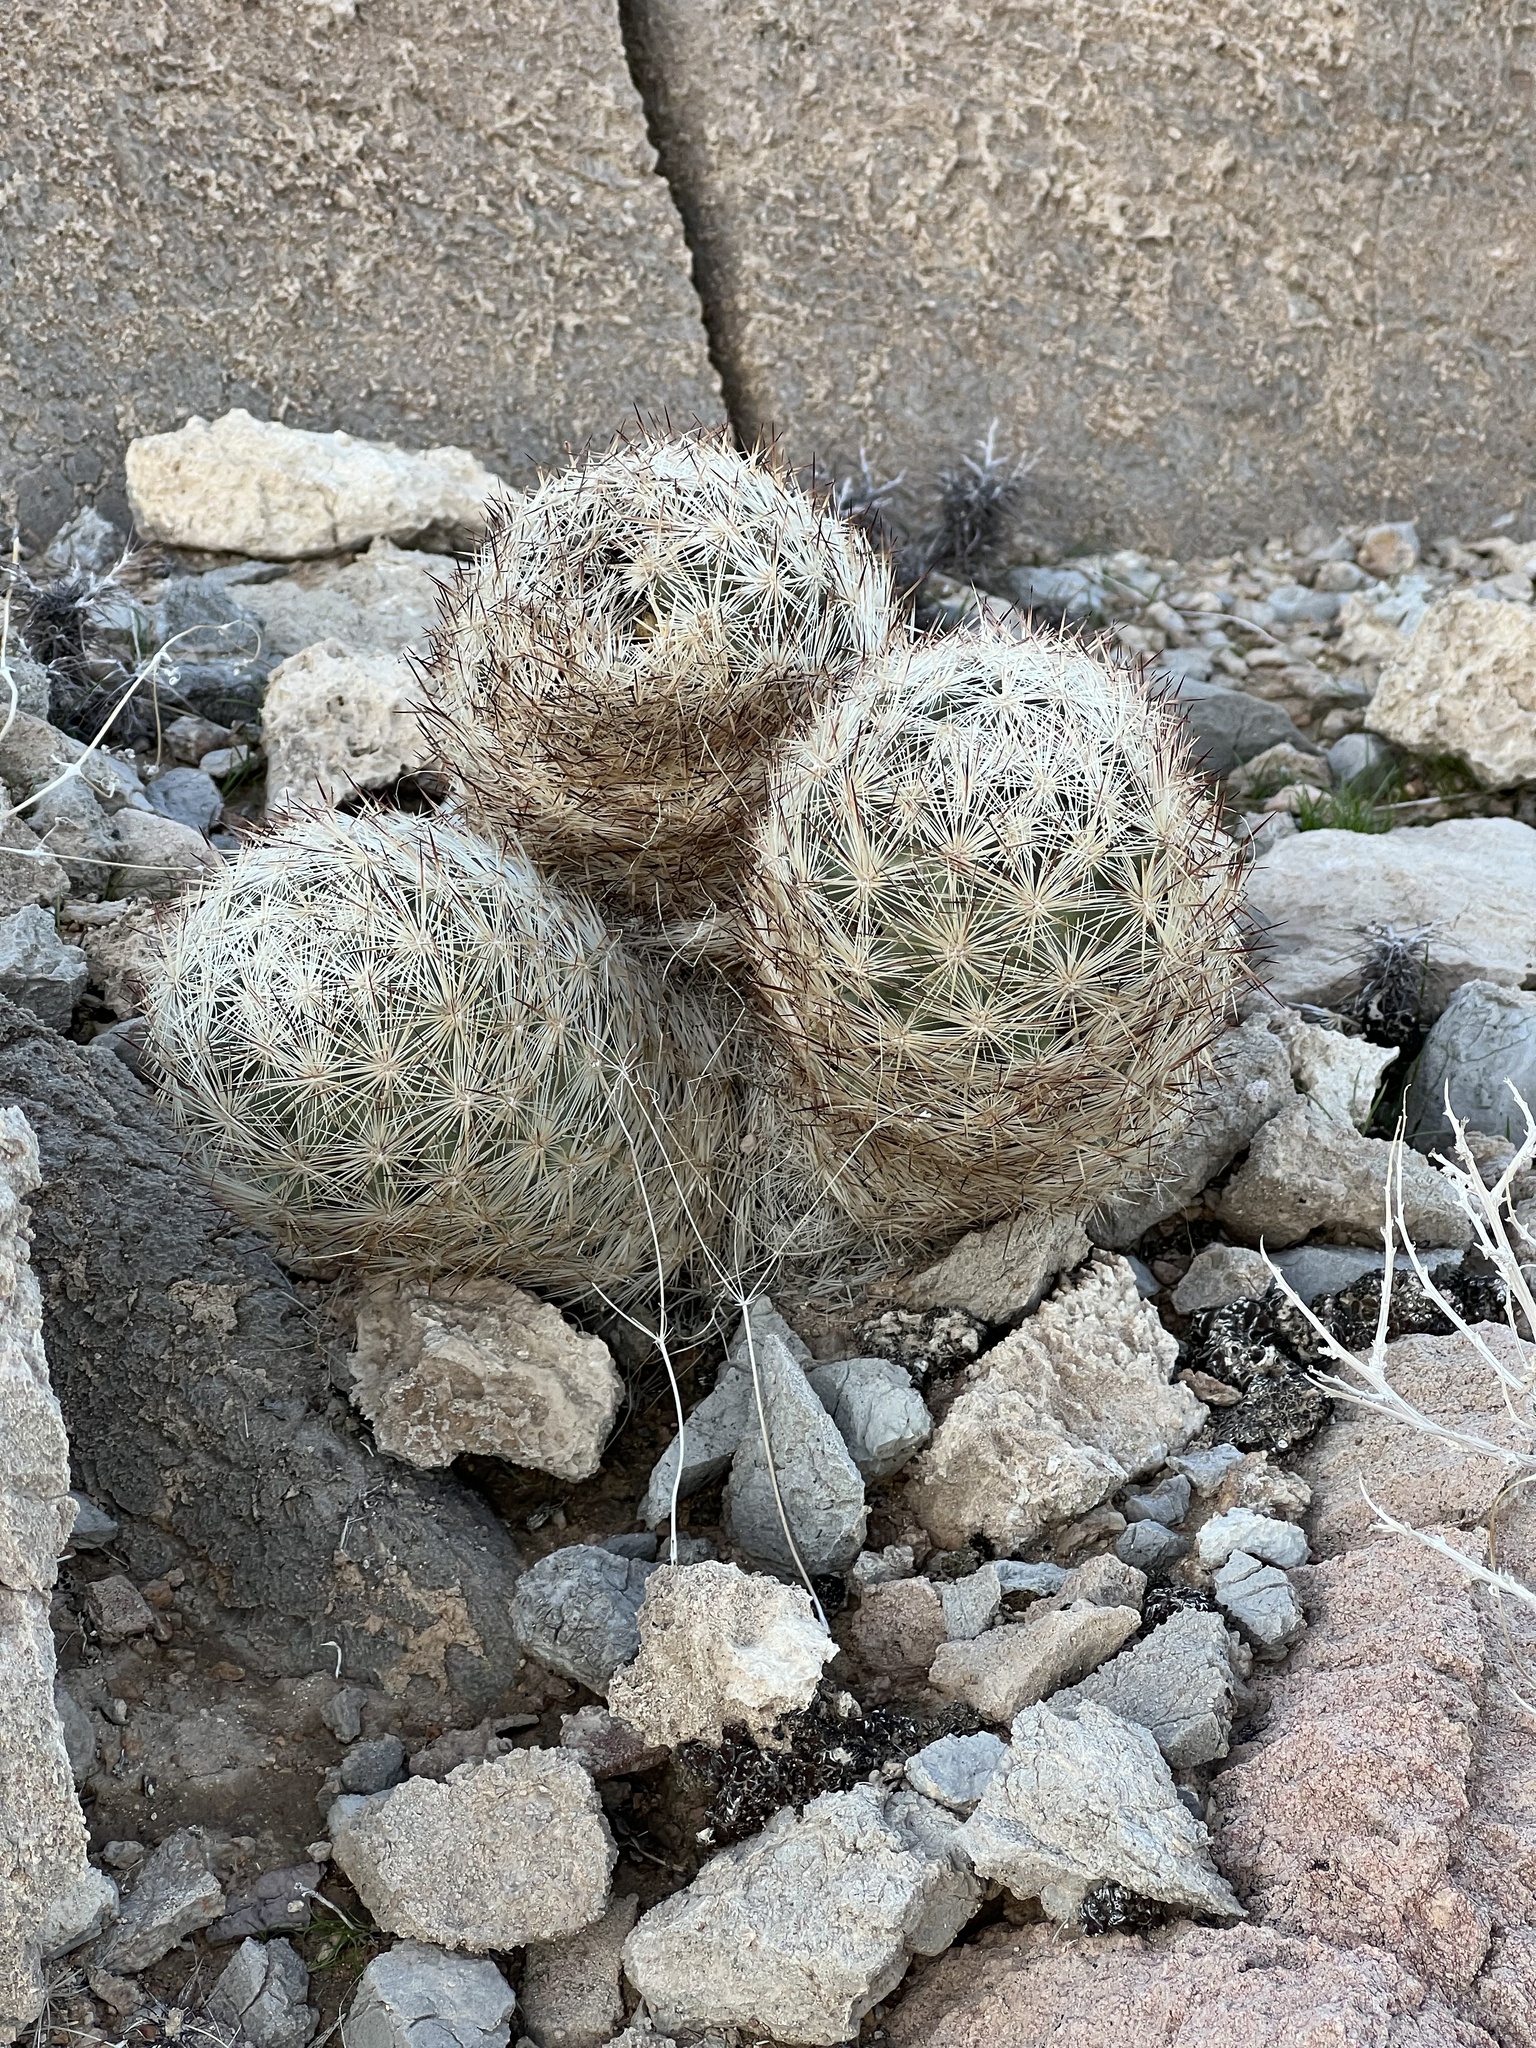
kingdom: Plantae
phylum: Tracheophyta
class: Magnoliopsida
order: Caryophyllales
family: Cactaceae
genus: Pelecyphora
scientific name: Pelecyphora dasyacantha
